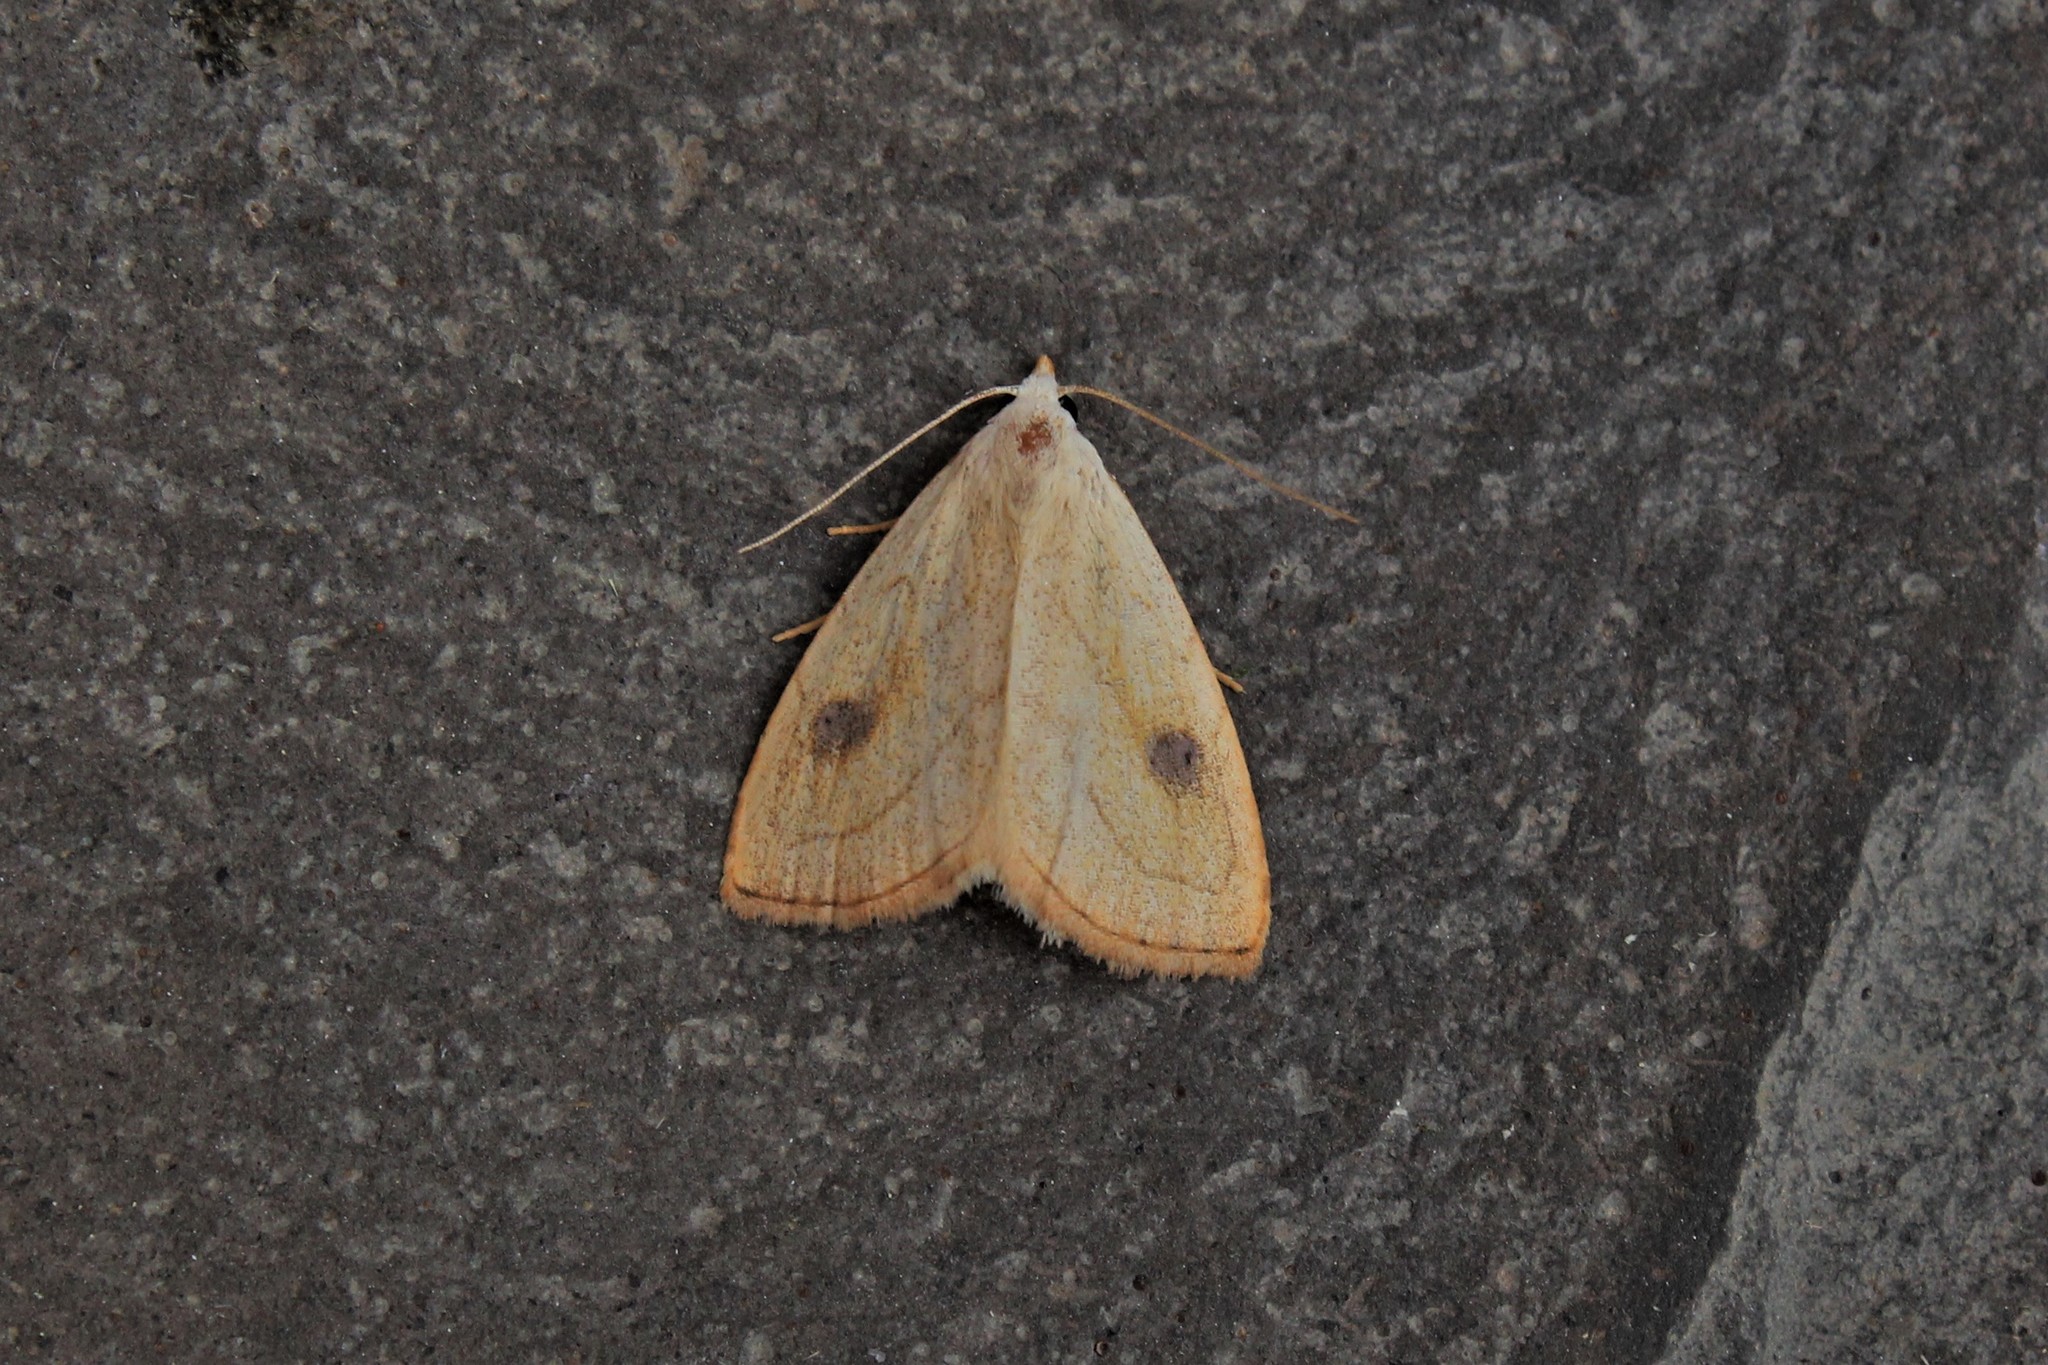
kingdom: Animalia
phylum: Arthropoda
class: Insecta
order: Lepidoptera
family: Erebidae
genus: Rivula
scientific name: Rivula propinqualis
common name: Spotted grass moth
